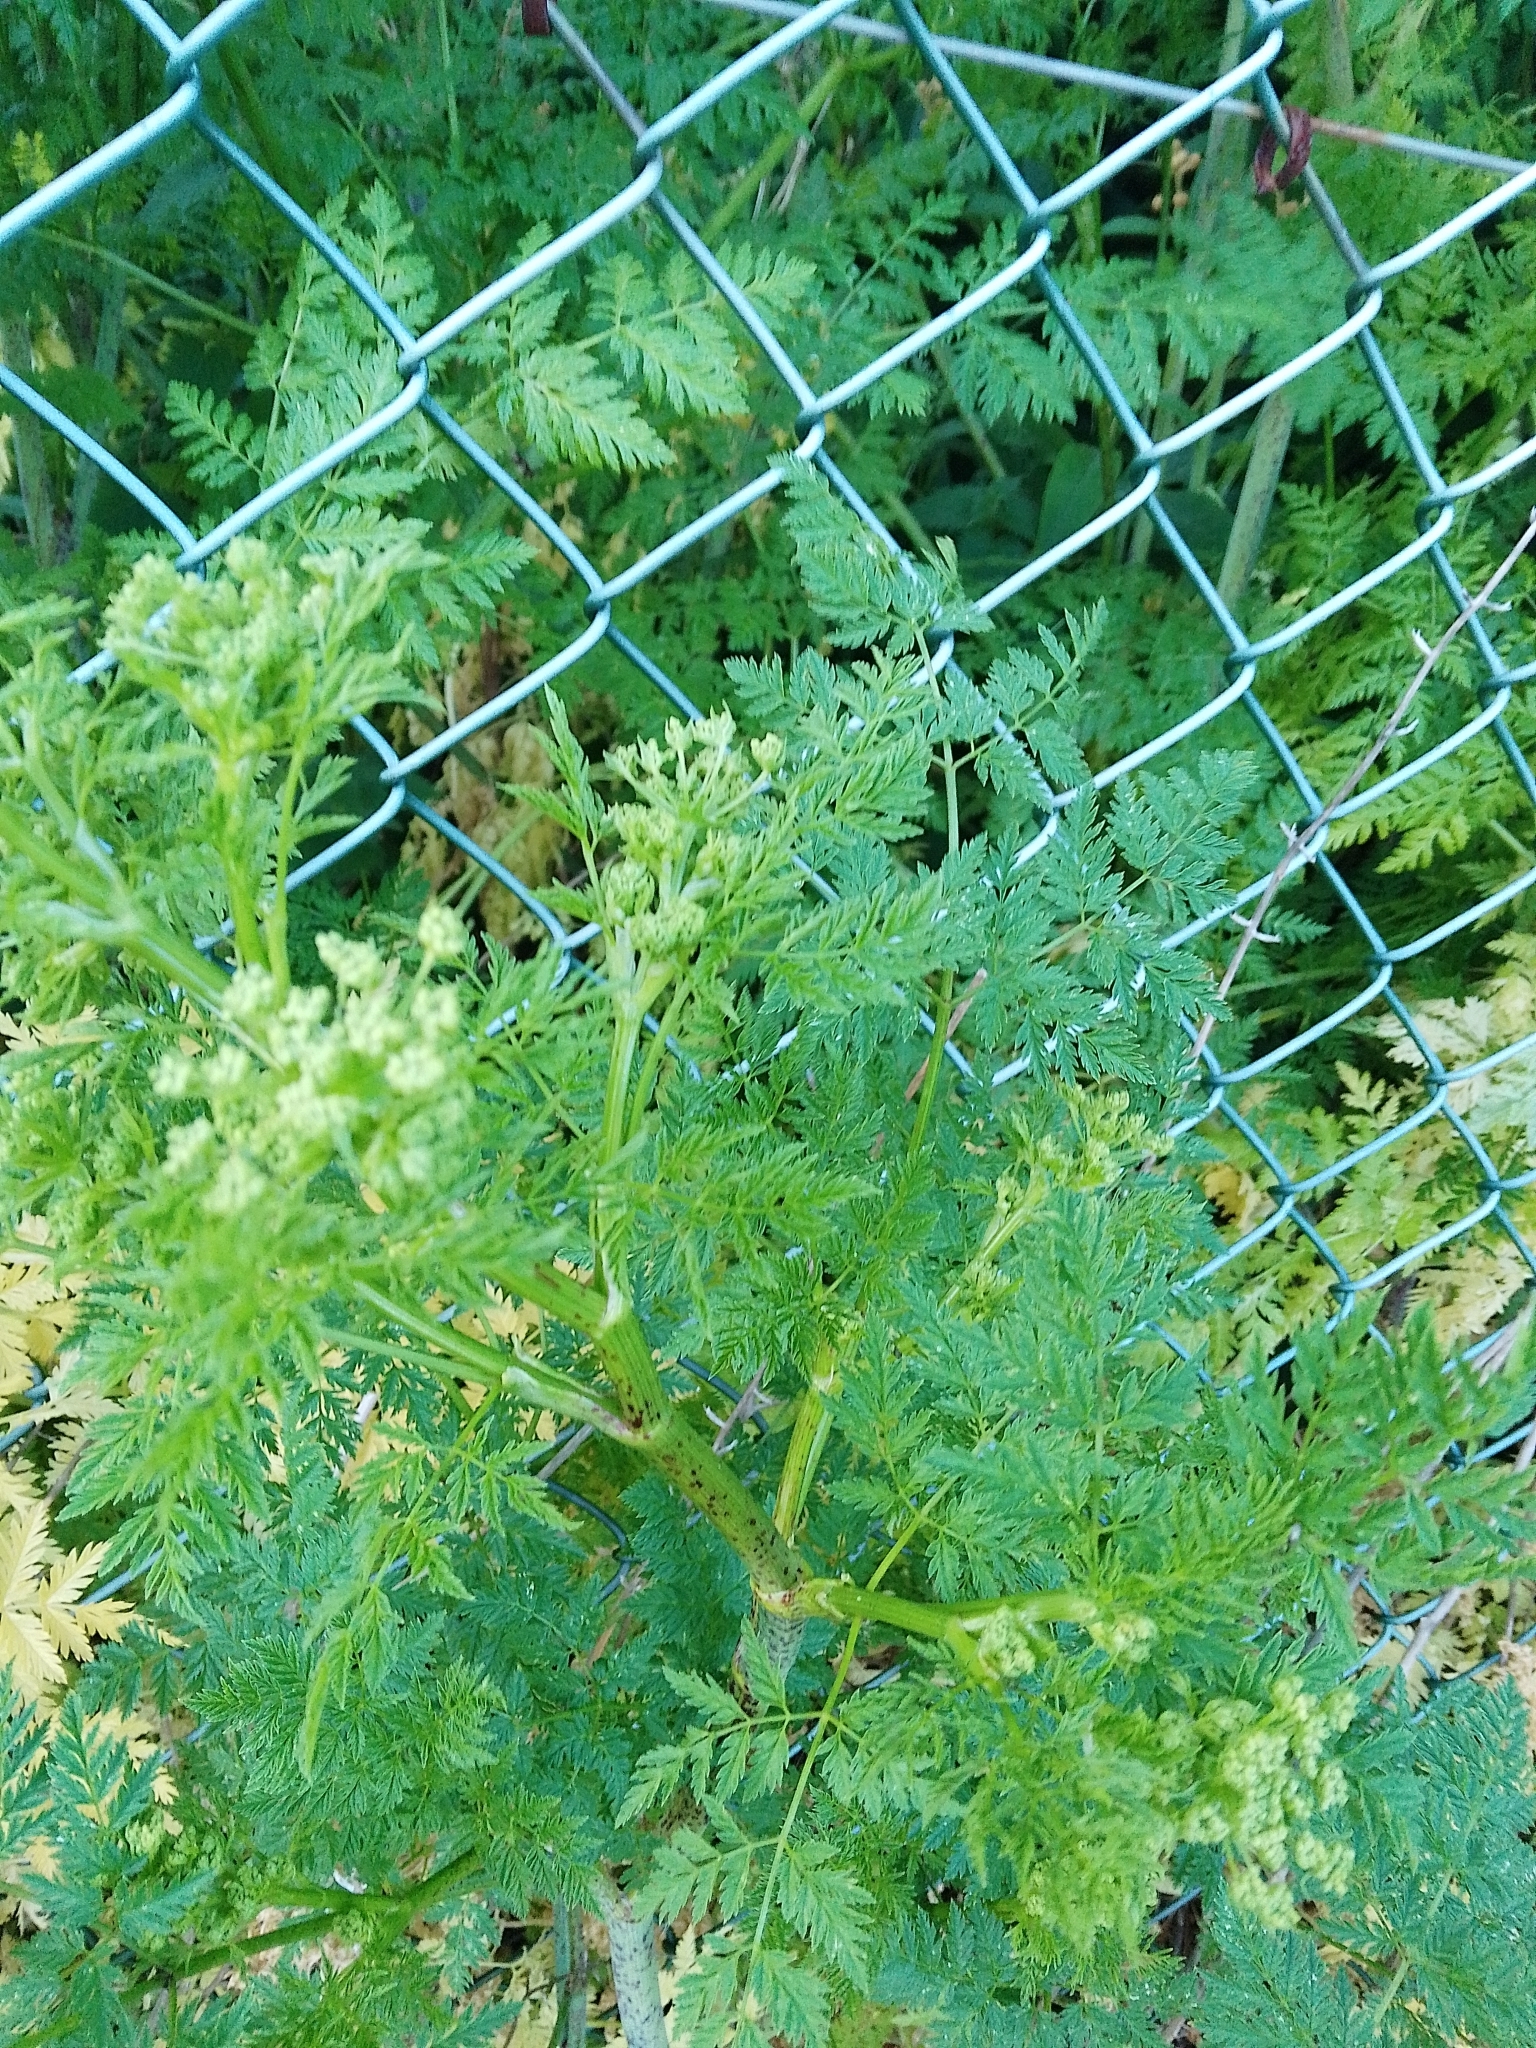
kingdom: Plantae
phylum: Tracheophyta
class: Magnoliopsida
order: Apiales
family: Apiaceae
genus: Conium
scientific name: Conium maculatum
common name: Hemlock
